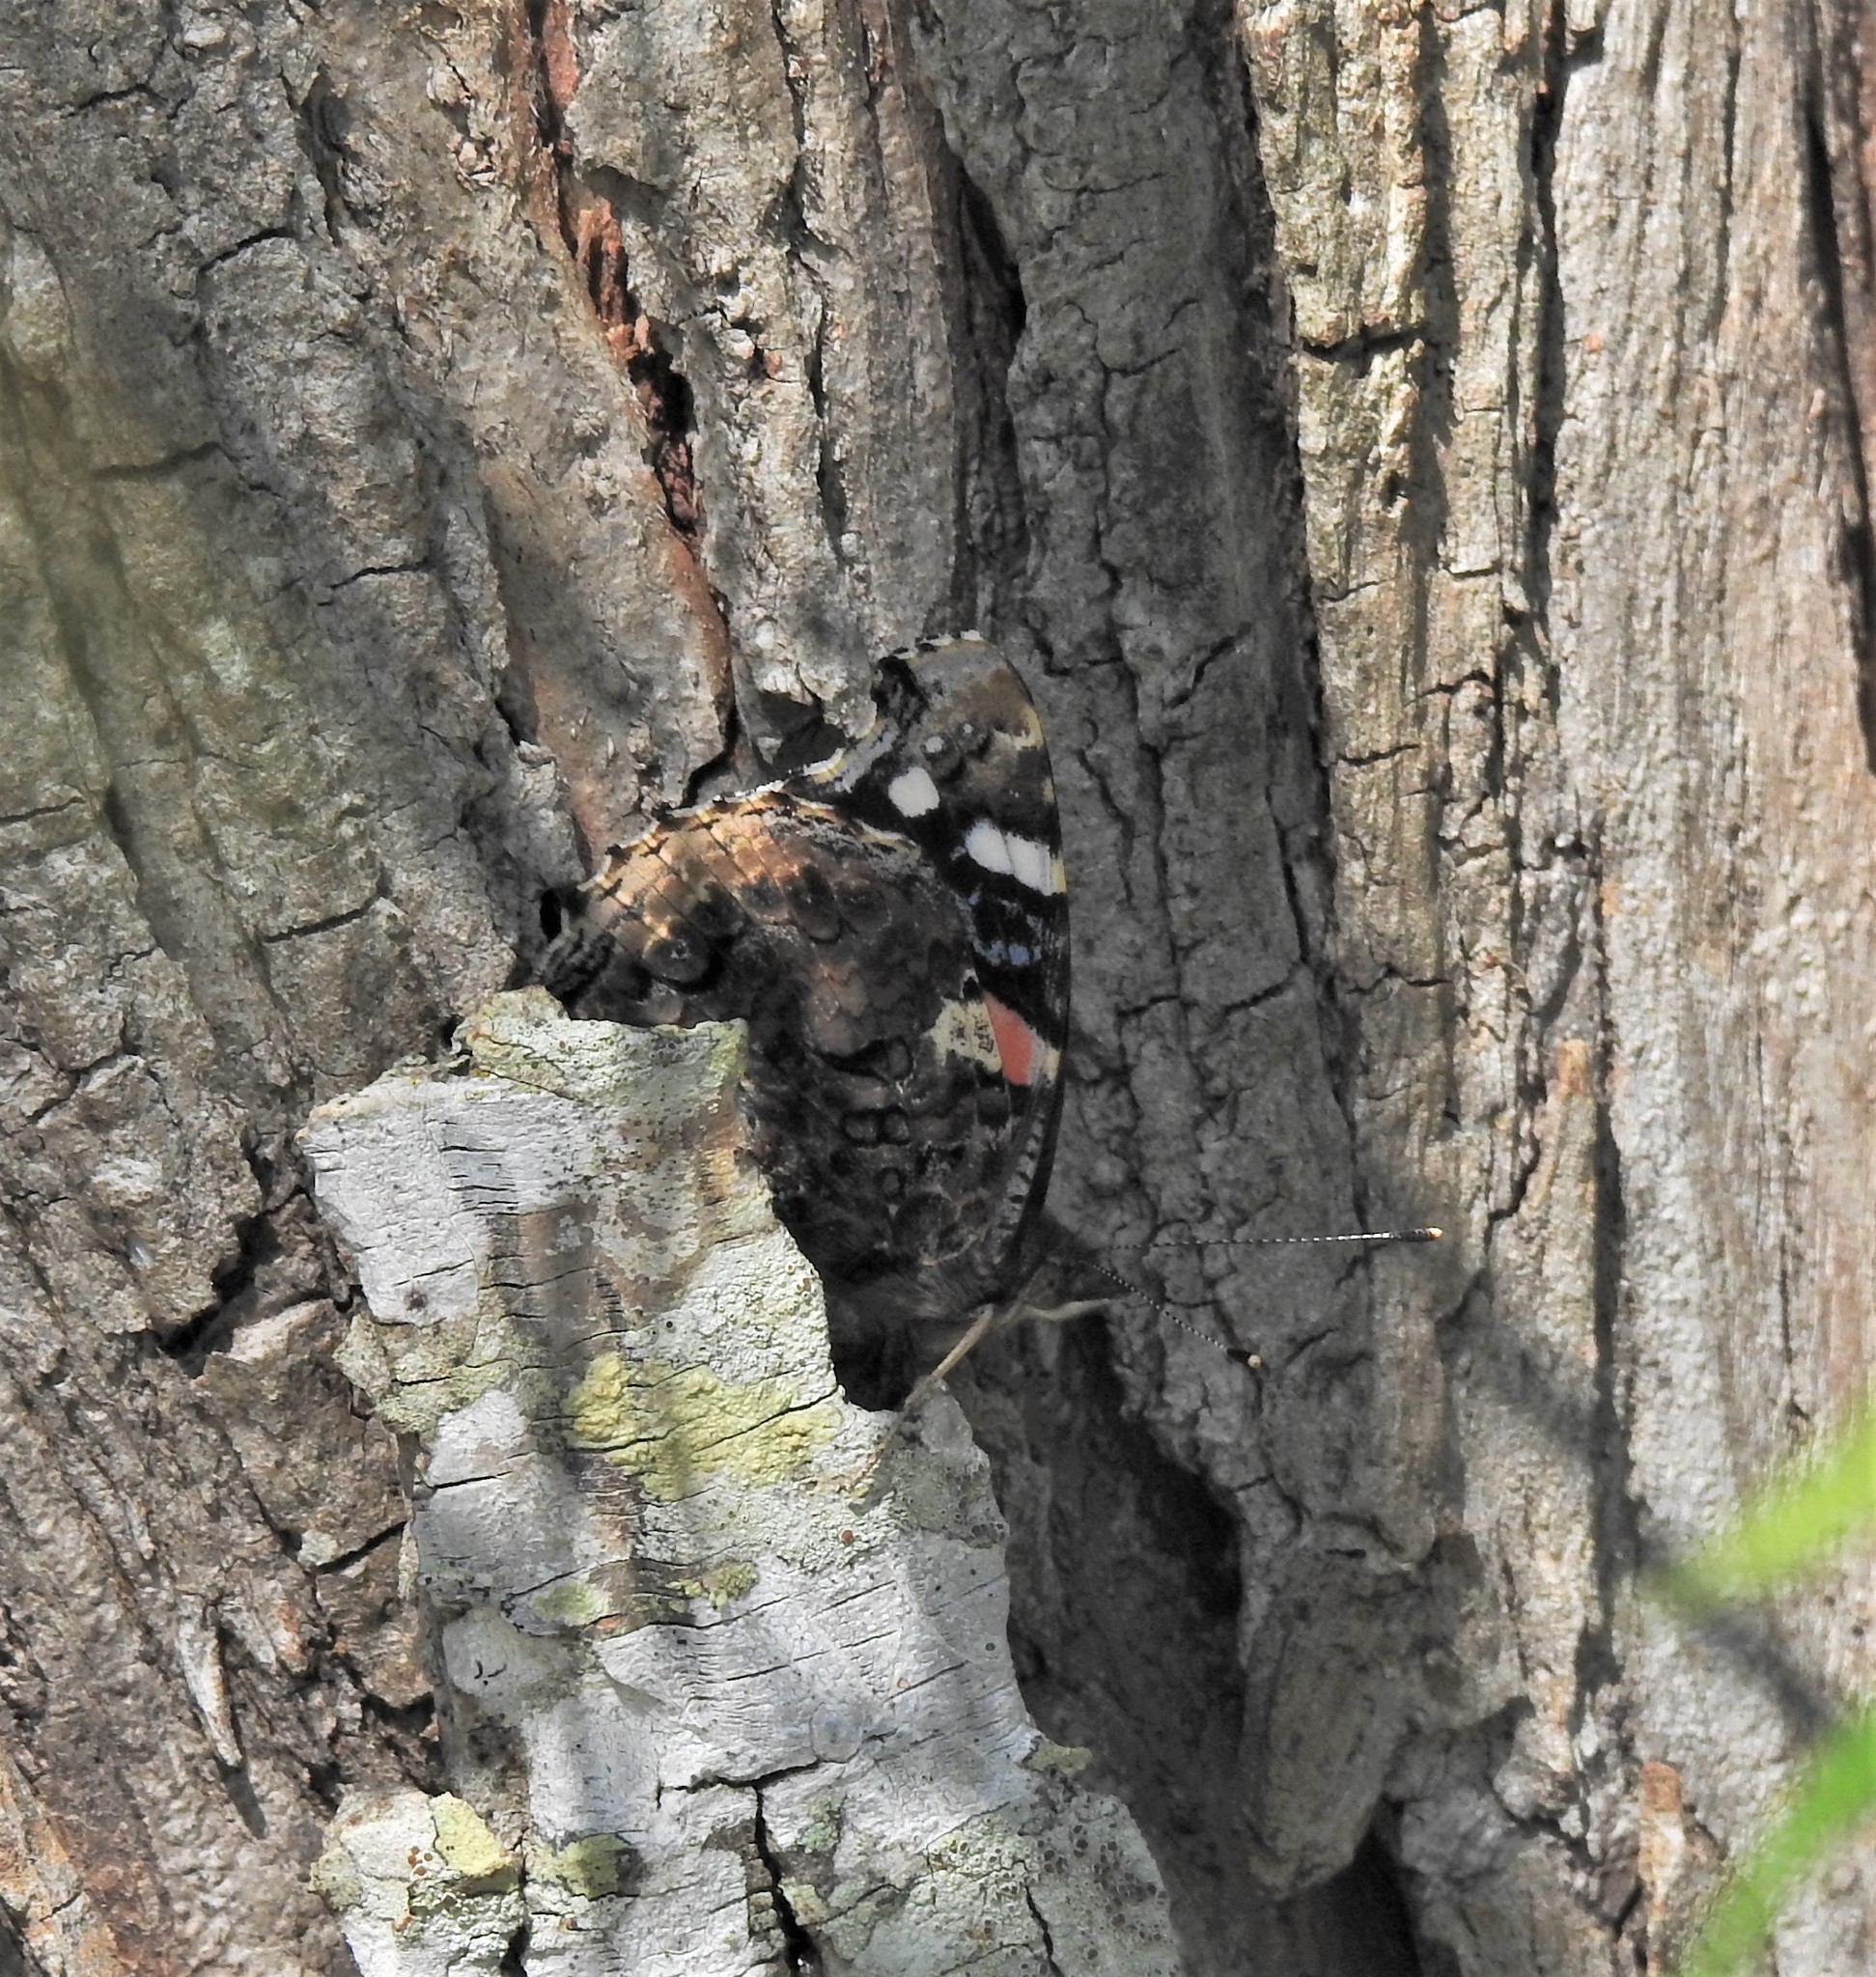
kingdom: Animalia
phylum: Arthropoda
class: Insecta
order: Lepidoptera
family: Nymphalidae
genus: Vanessa
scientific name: Vanessa atalanta
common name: Red admiral
